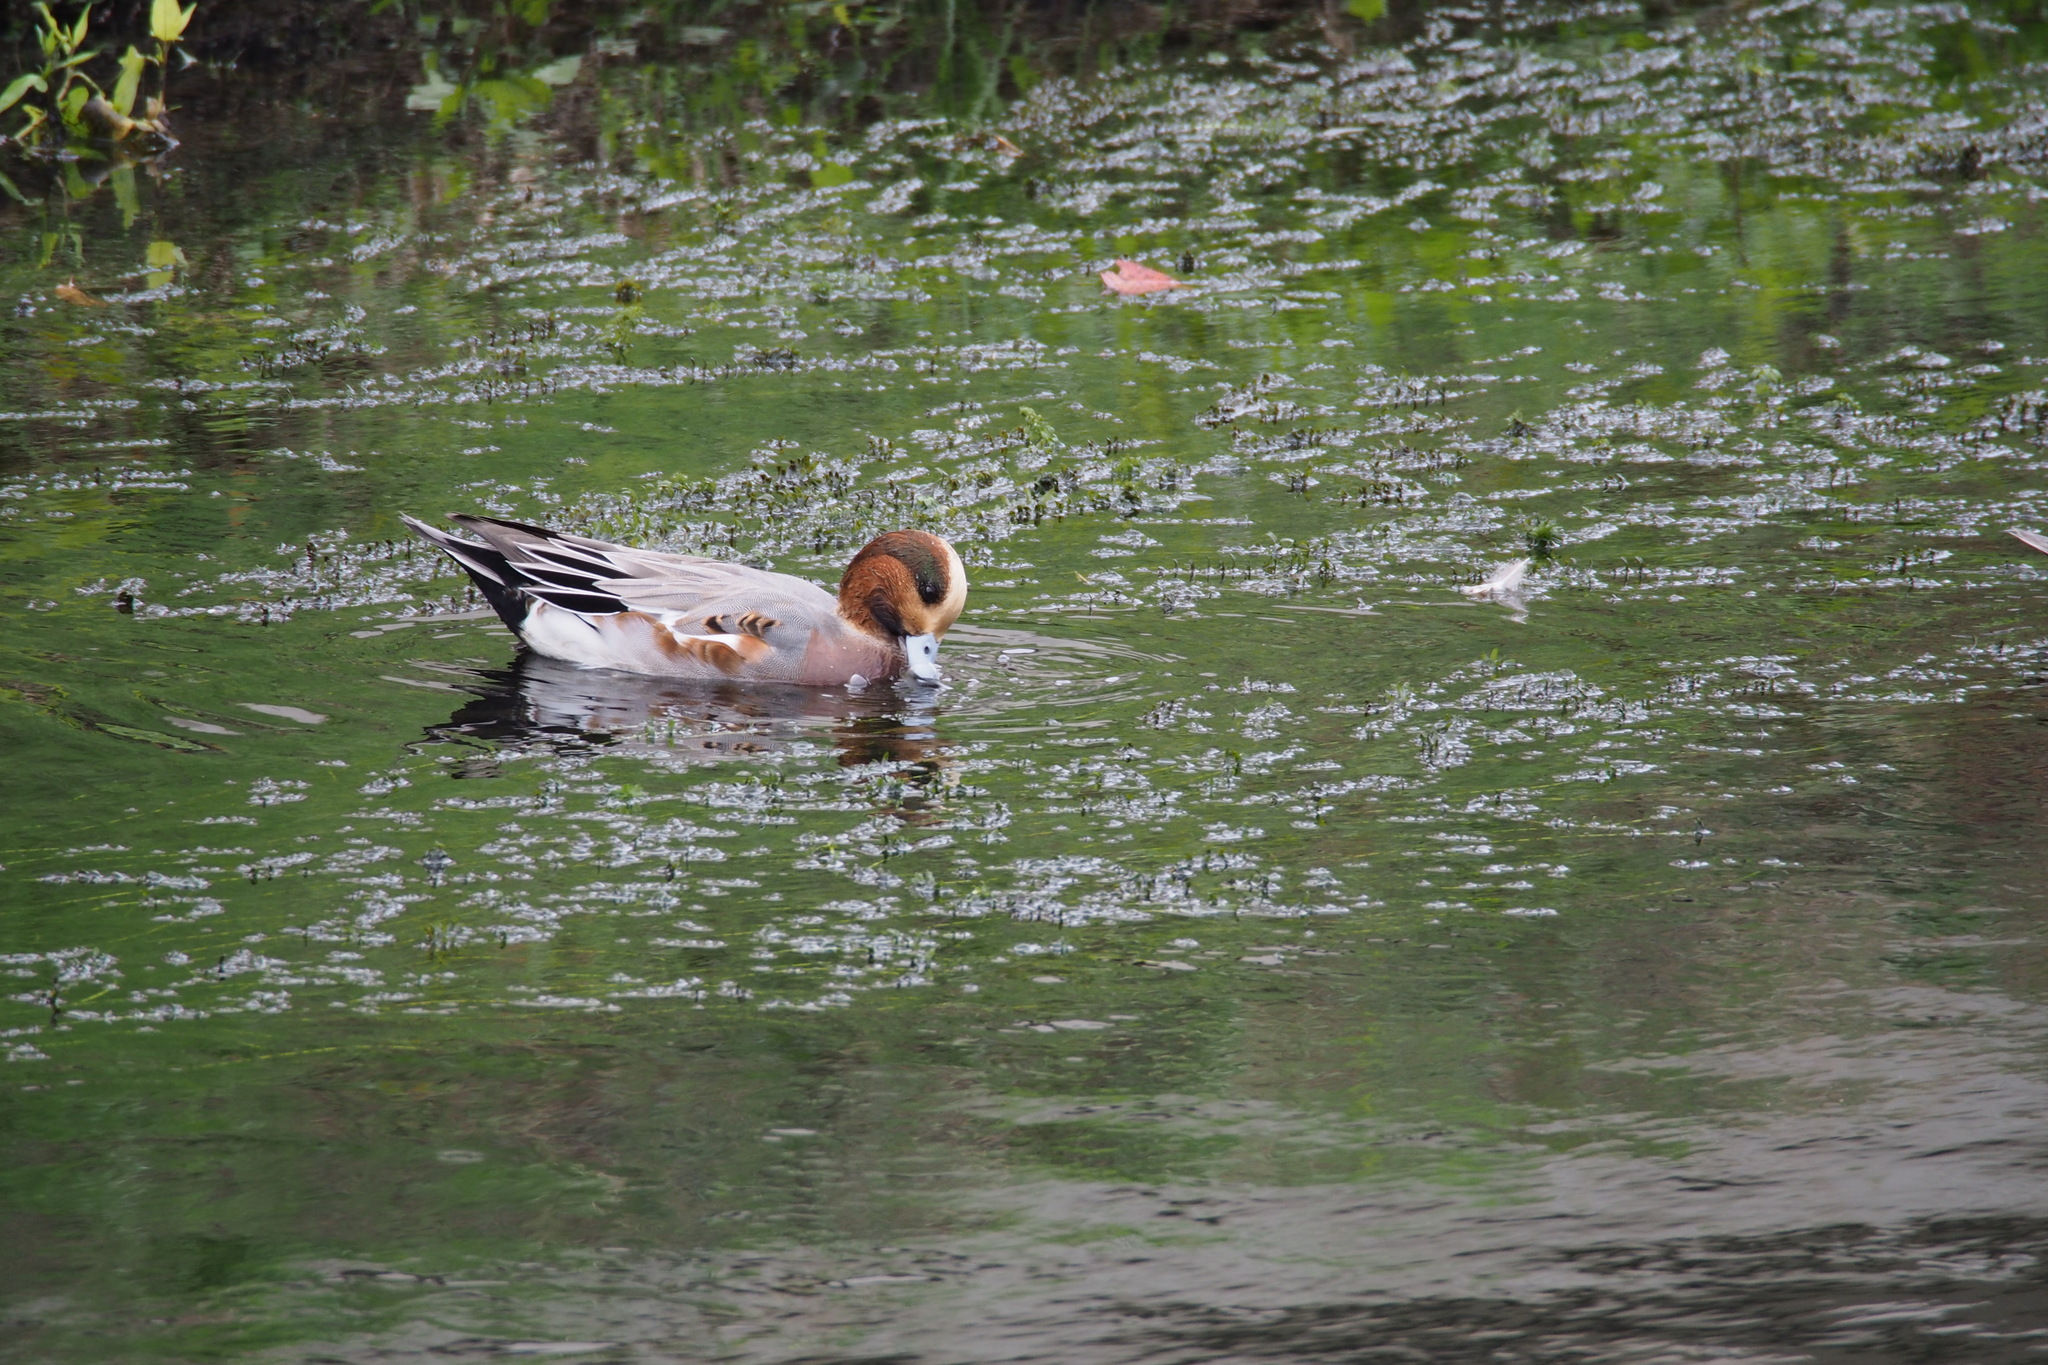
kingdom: Animalia
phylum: Chordata
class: Aves
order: Anseriformes
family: Anatidae
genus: Mareca
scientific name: Mareca penelope
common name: Eurasian wigeon
